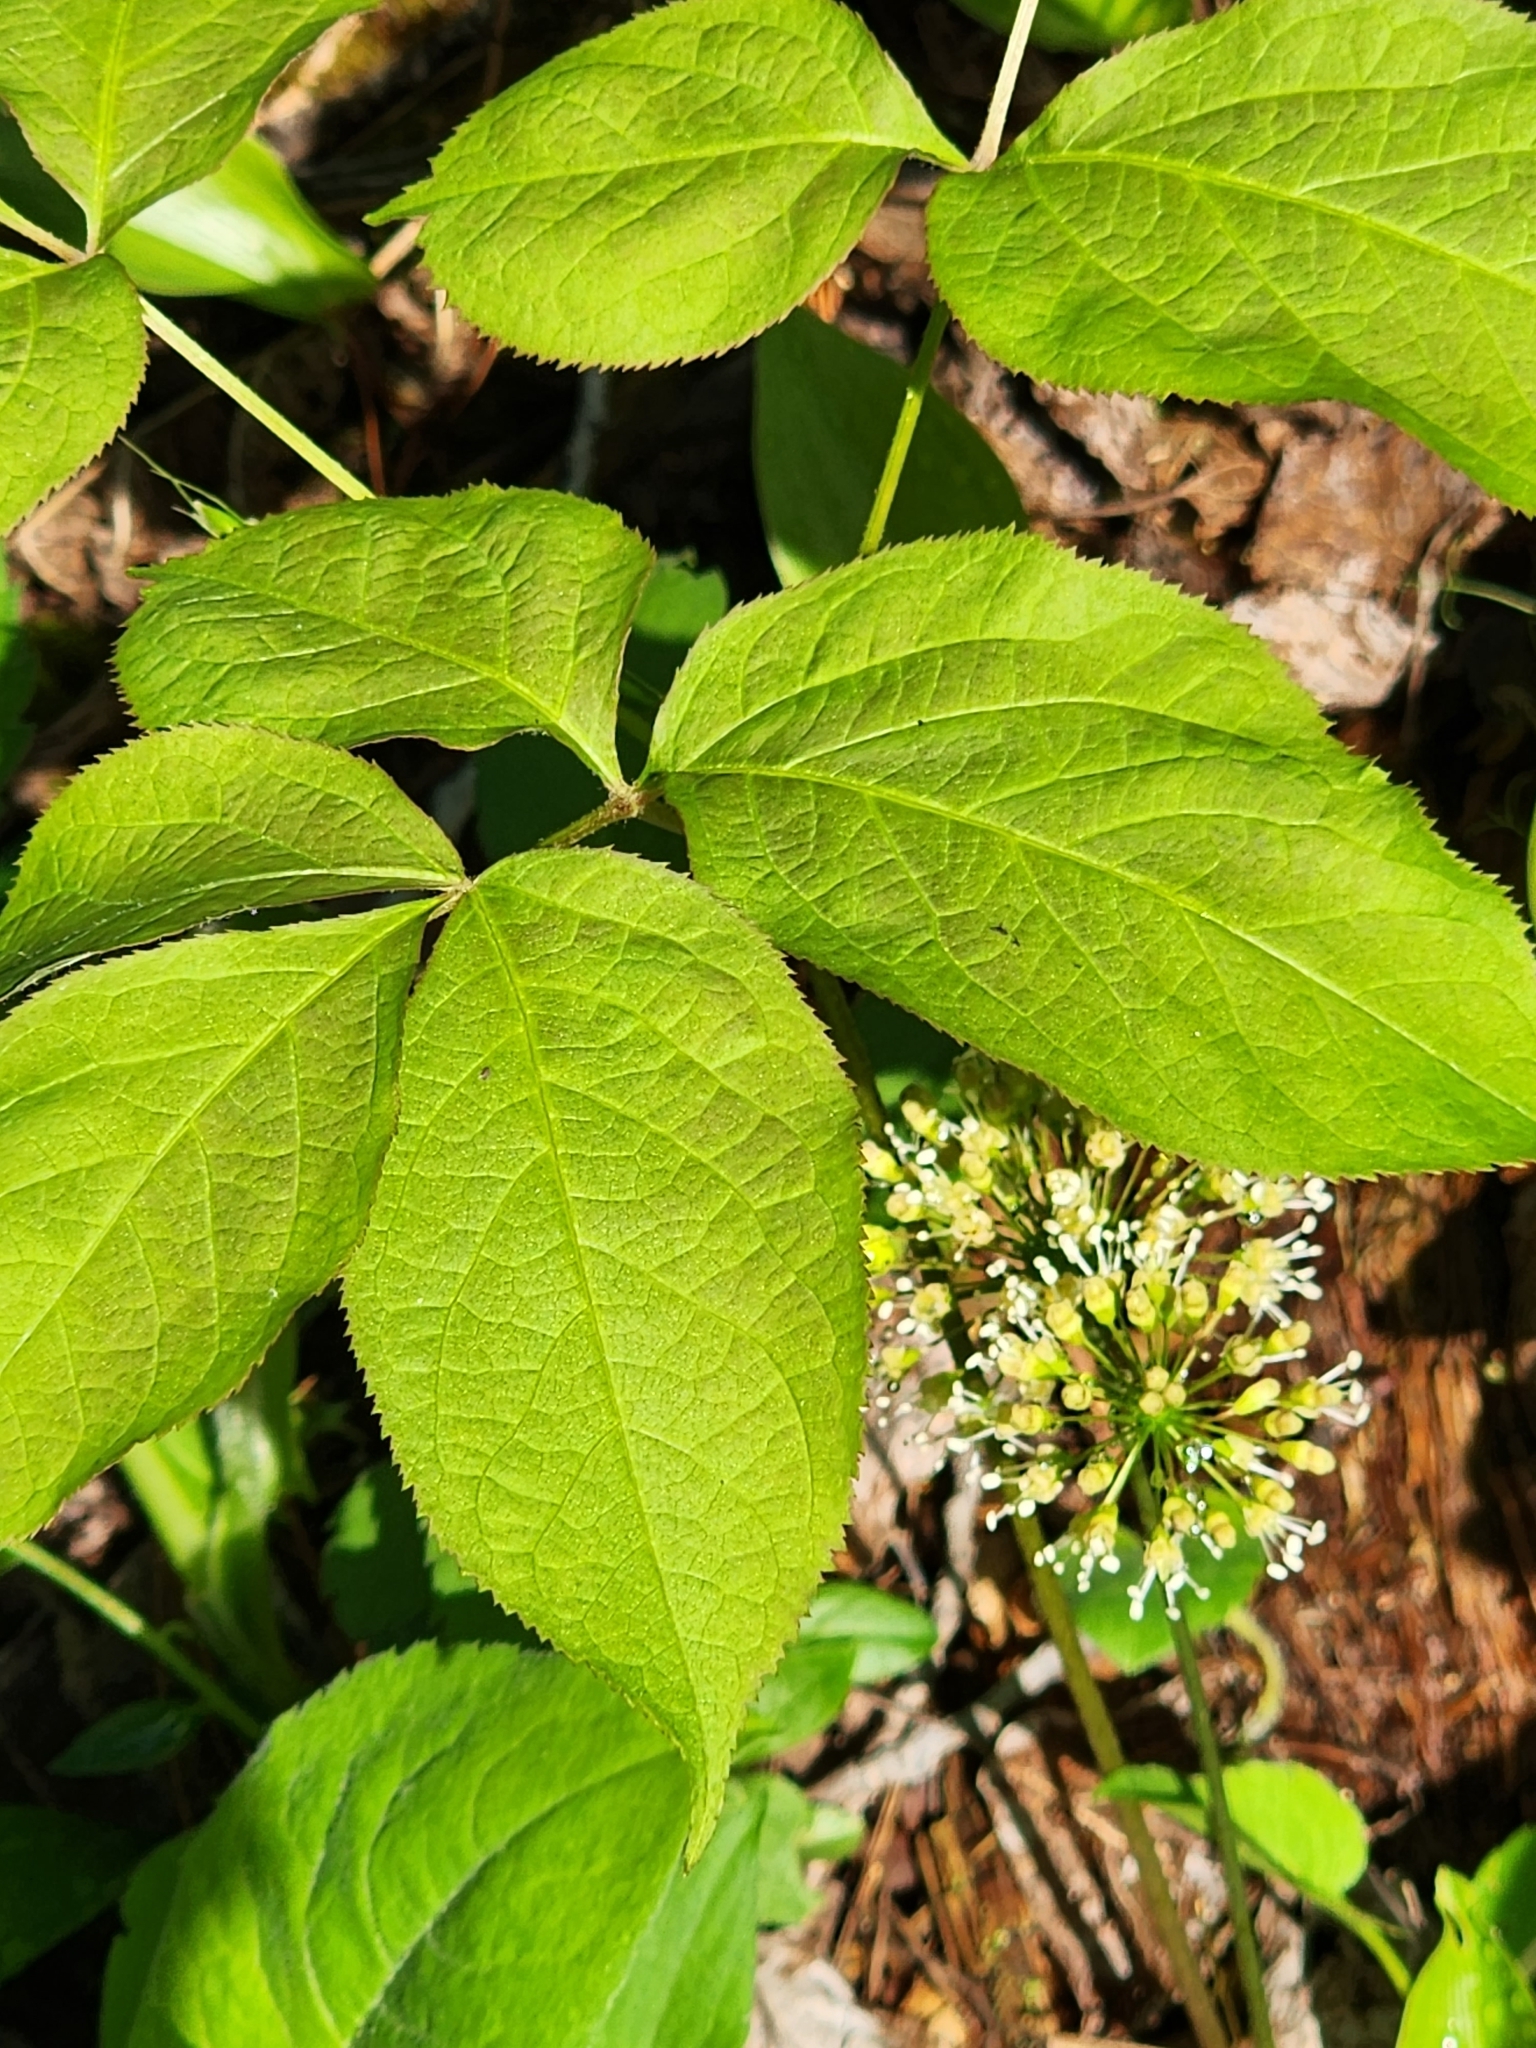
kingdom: Plantae
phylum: Tracheophyta
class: Magnoliopsida
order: Apiales
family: Araliaceae
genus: Aralia
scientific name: Aralia nudicaulis
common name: Wild sarsaparilla
